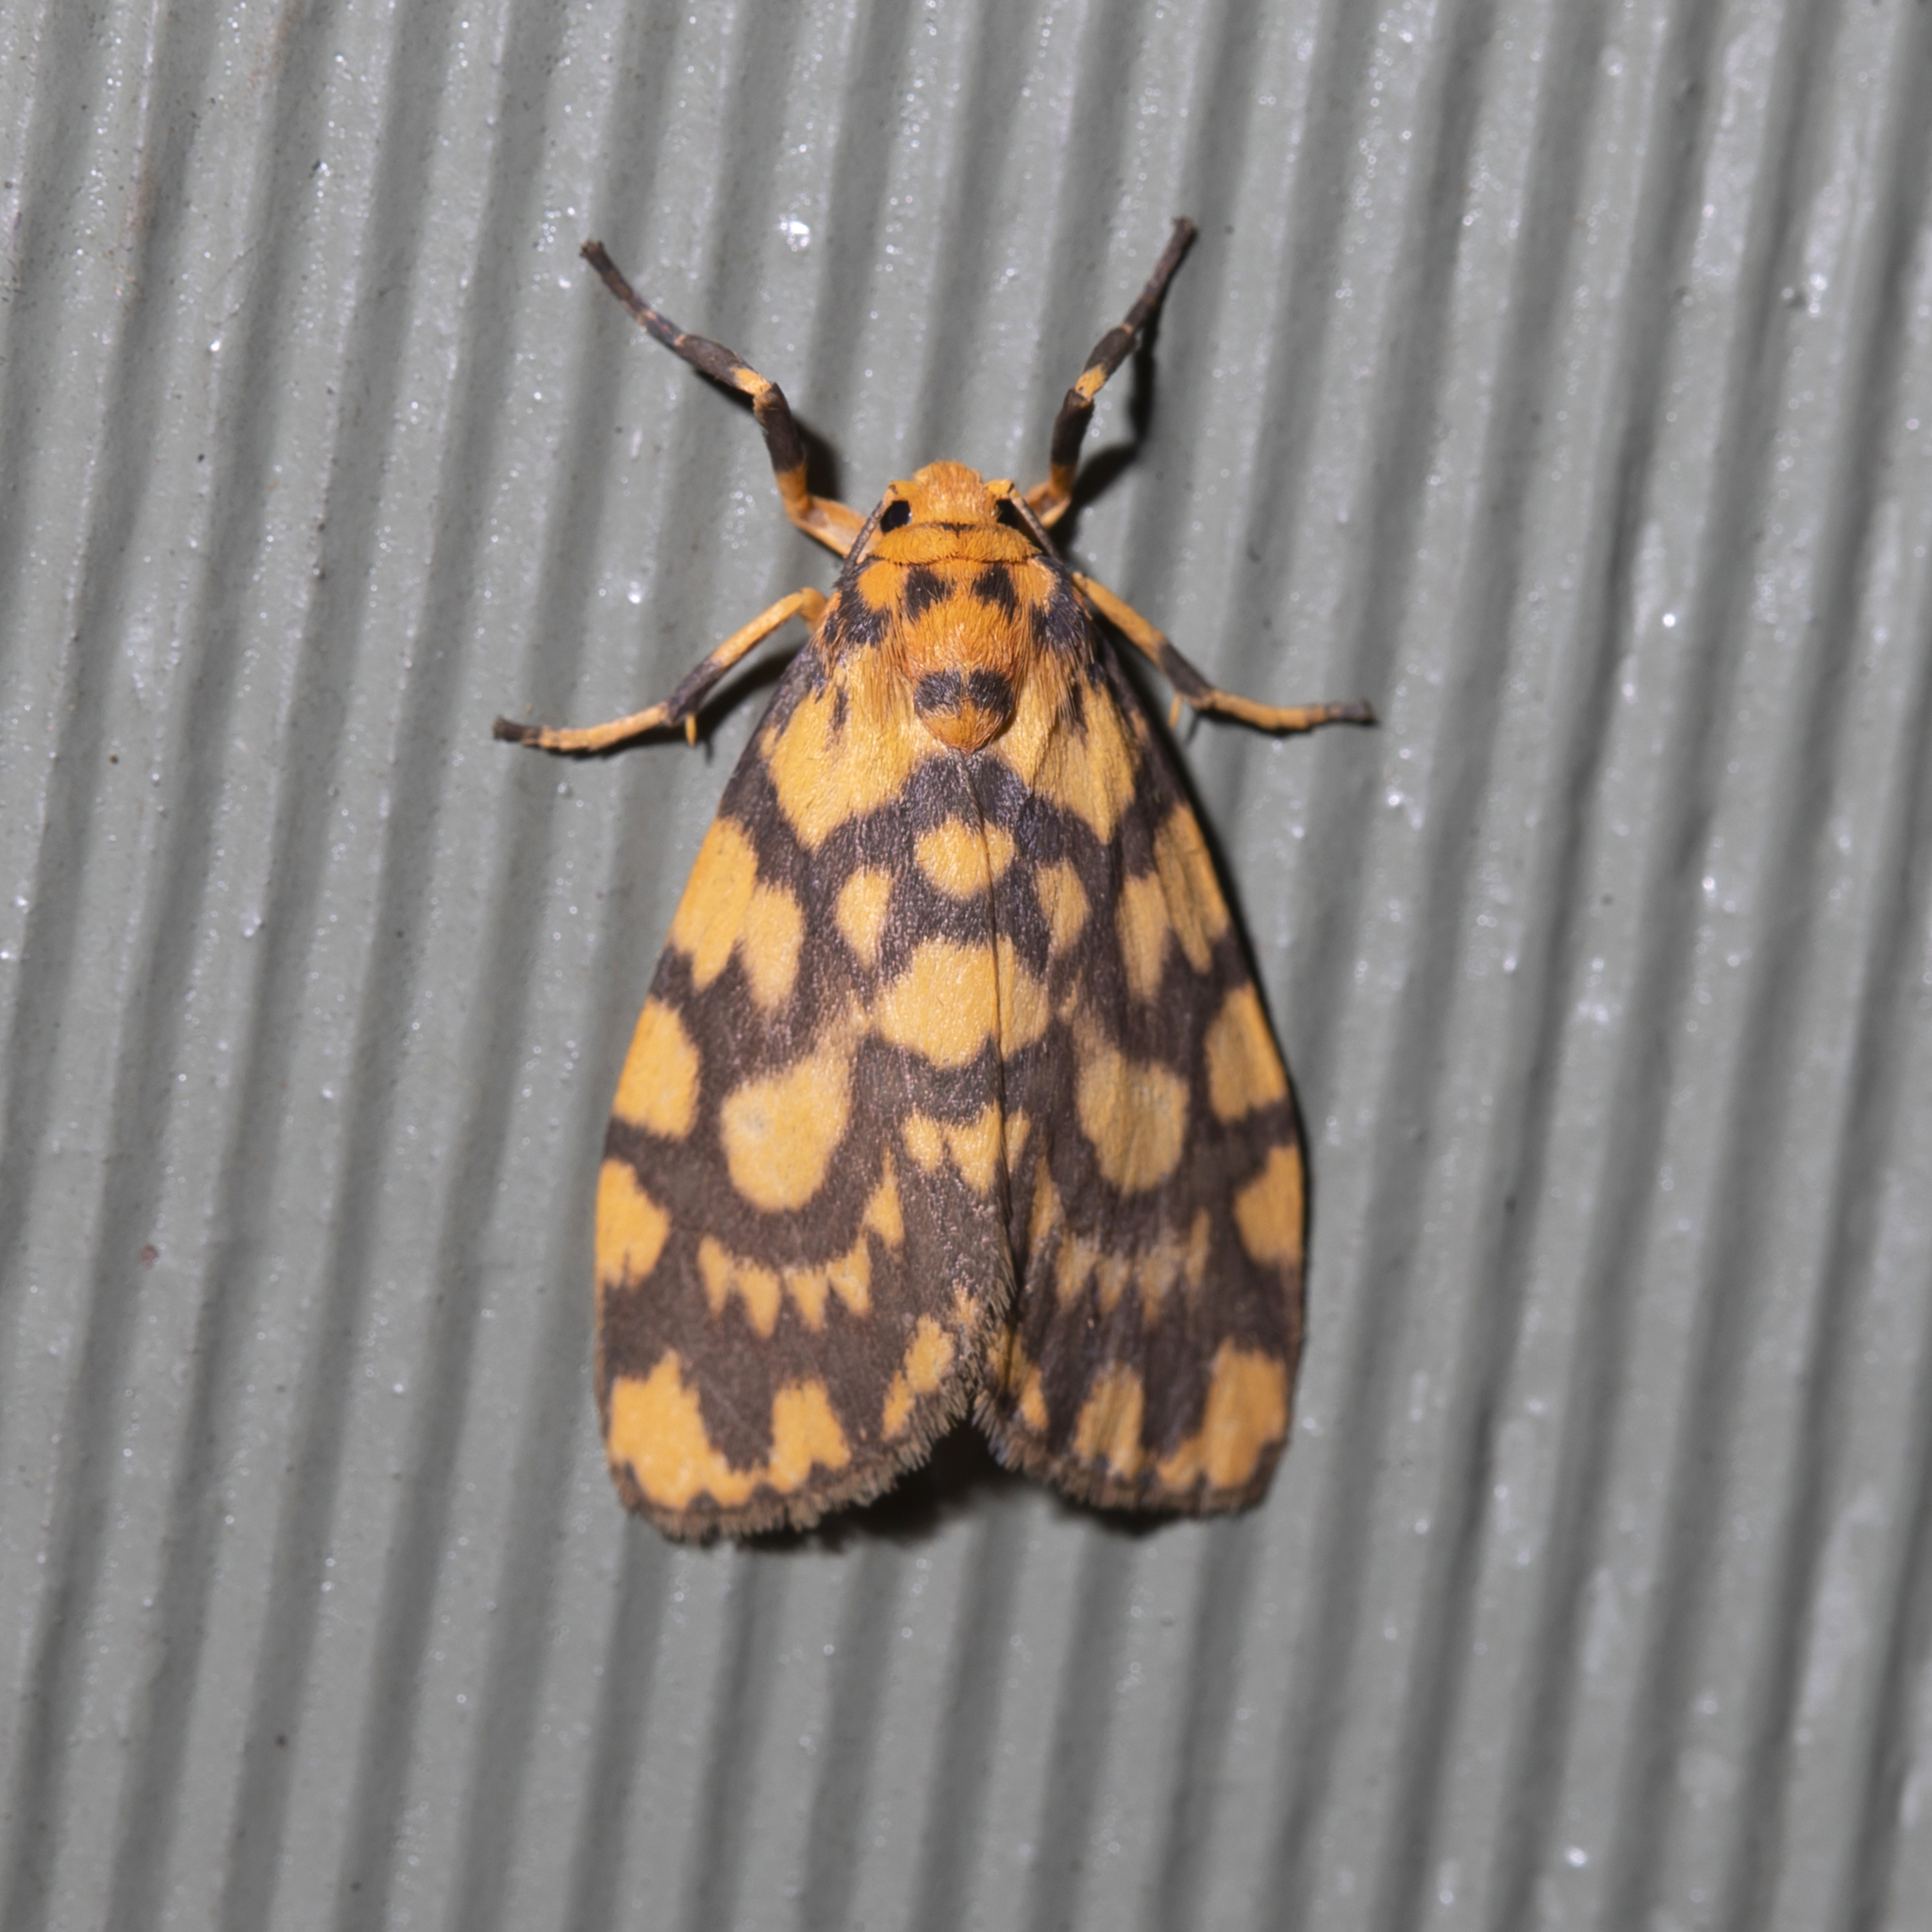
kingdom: Animalia
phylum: Arthropoda
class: Insecta
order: Lepidoptera
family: Erebidae
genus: Cyme
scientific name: Cyme quadrilineata
